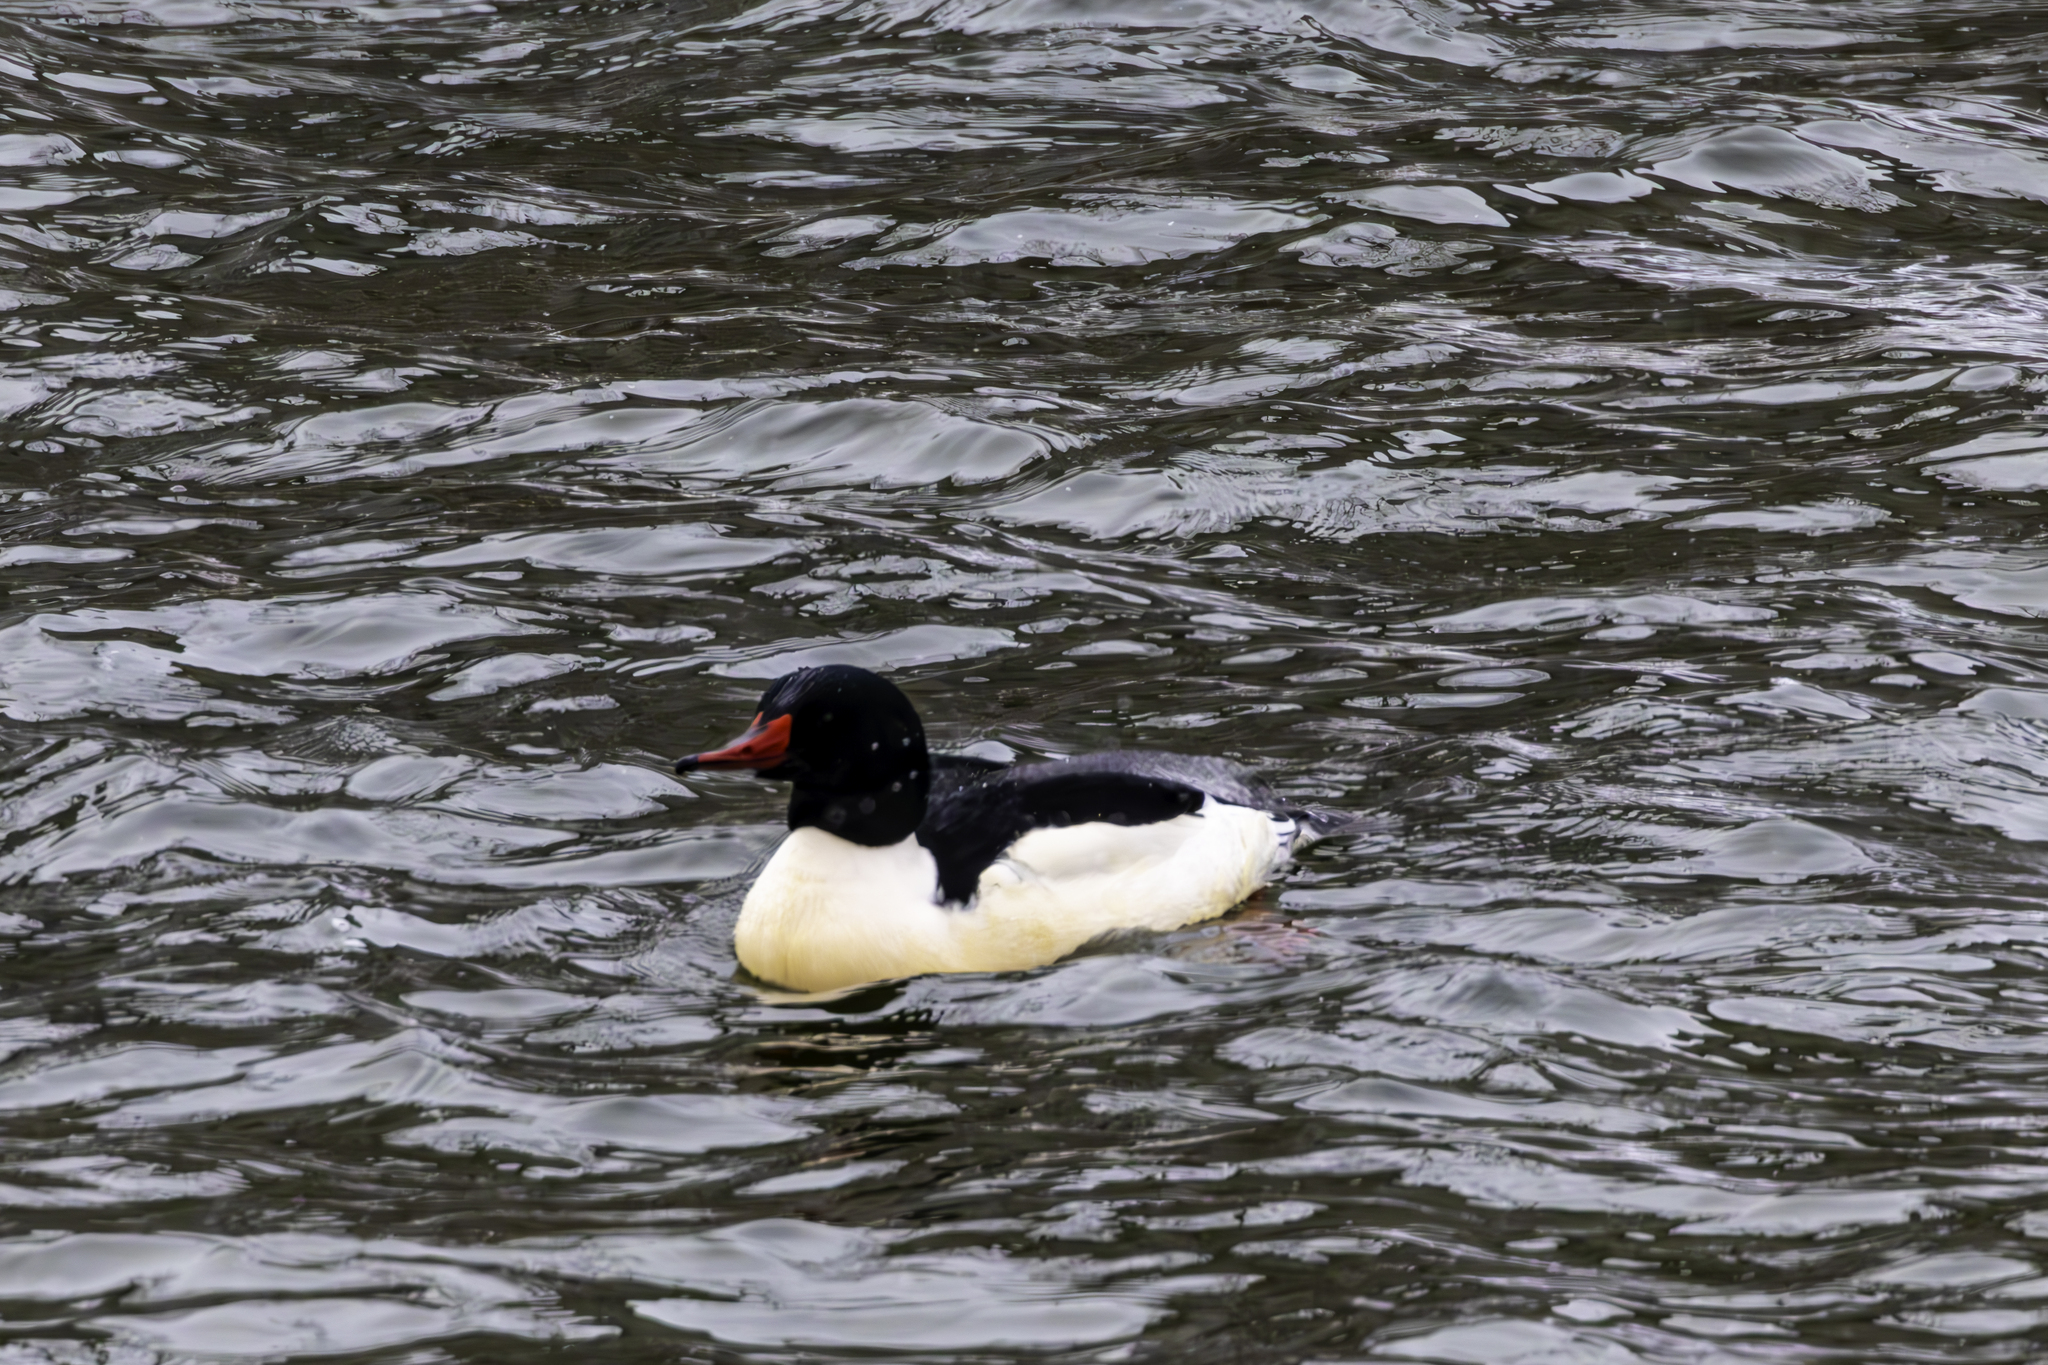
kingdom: Animalia
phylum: Chordata
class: Aves
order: Anseriformes
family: Anatidae
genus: Mergus
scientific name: Mergus merganser
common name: Common merganser
